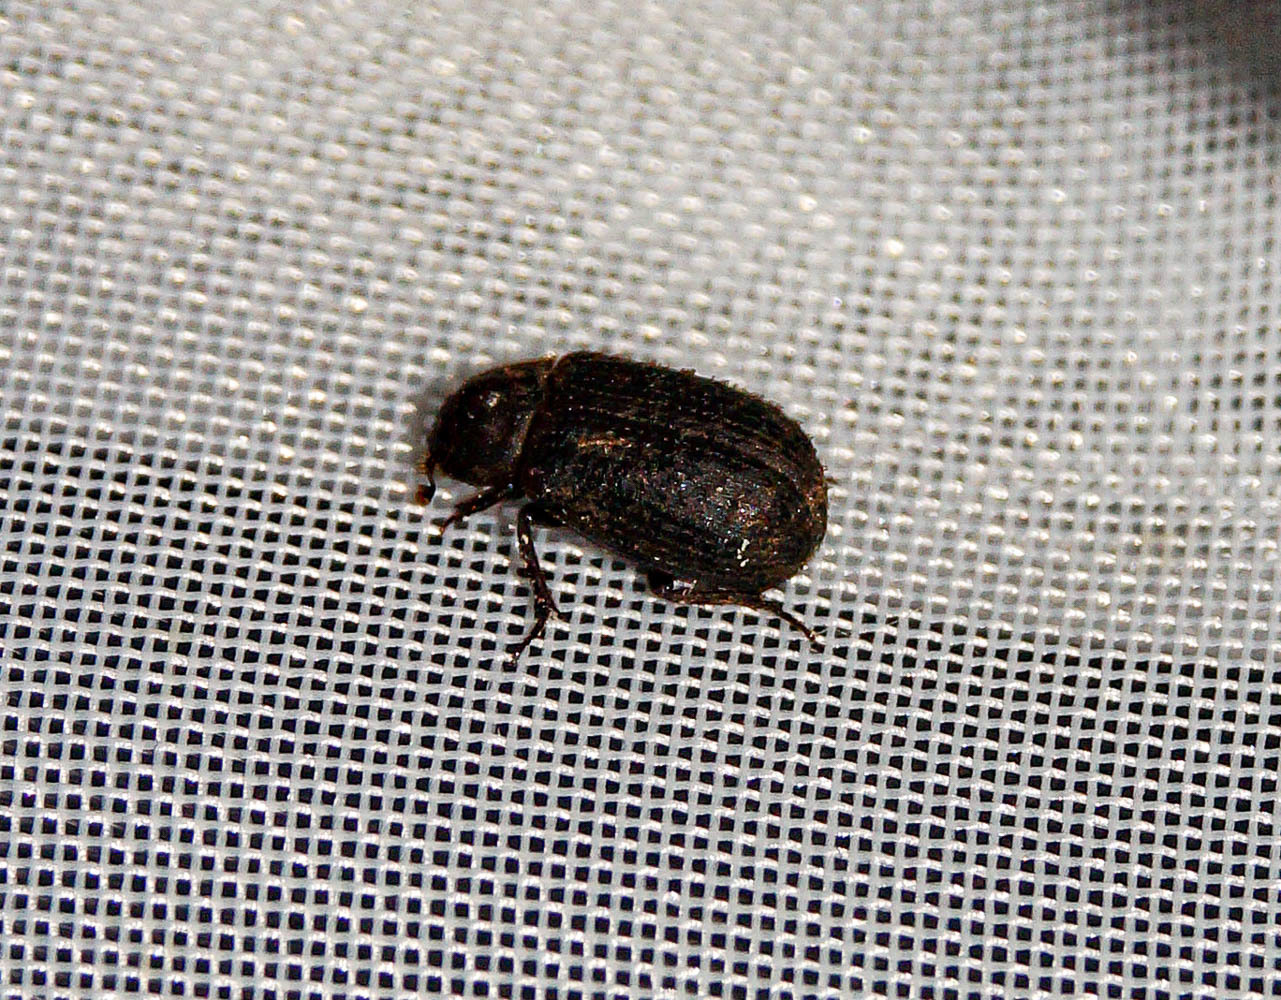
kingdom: Animalia
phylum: Arthropoda
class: Insecta
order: Coleoptera
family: Trogidae
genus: Trox
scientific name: Trox scaber
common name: Hide beetle
